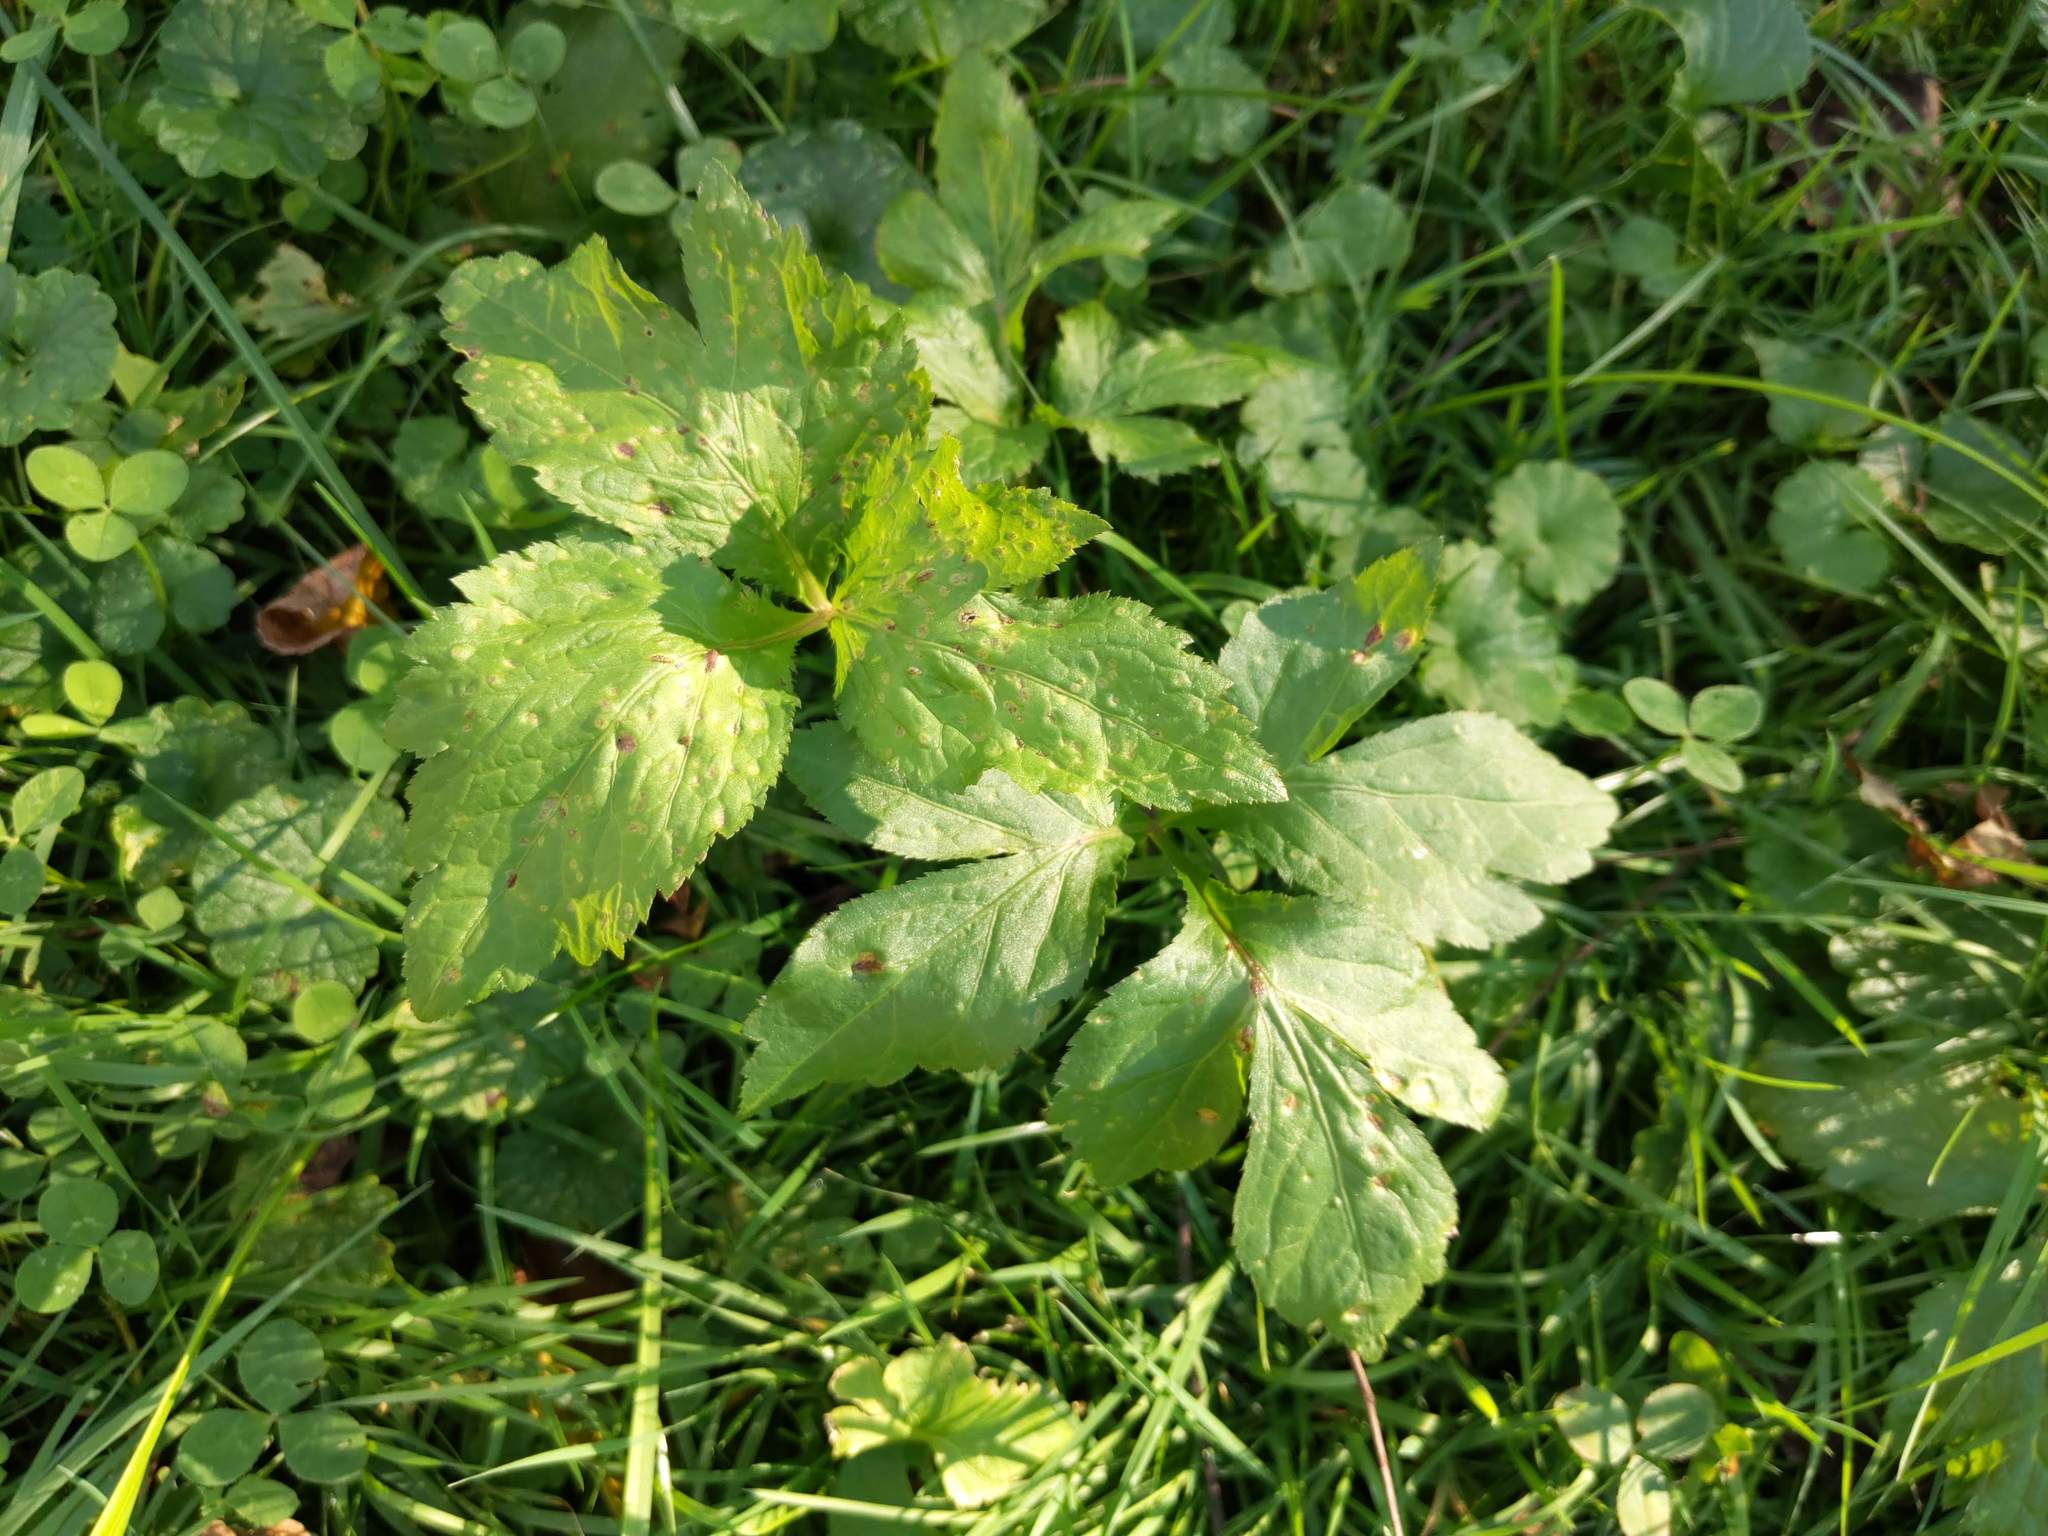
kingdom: Plantae
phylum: Tracheophyta
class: Magnoliopsida
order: Apiales
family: Apiaceae
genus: Cryptotaenia
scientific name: Cryptotaenia canadensis
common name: Honewort
